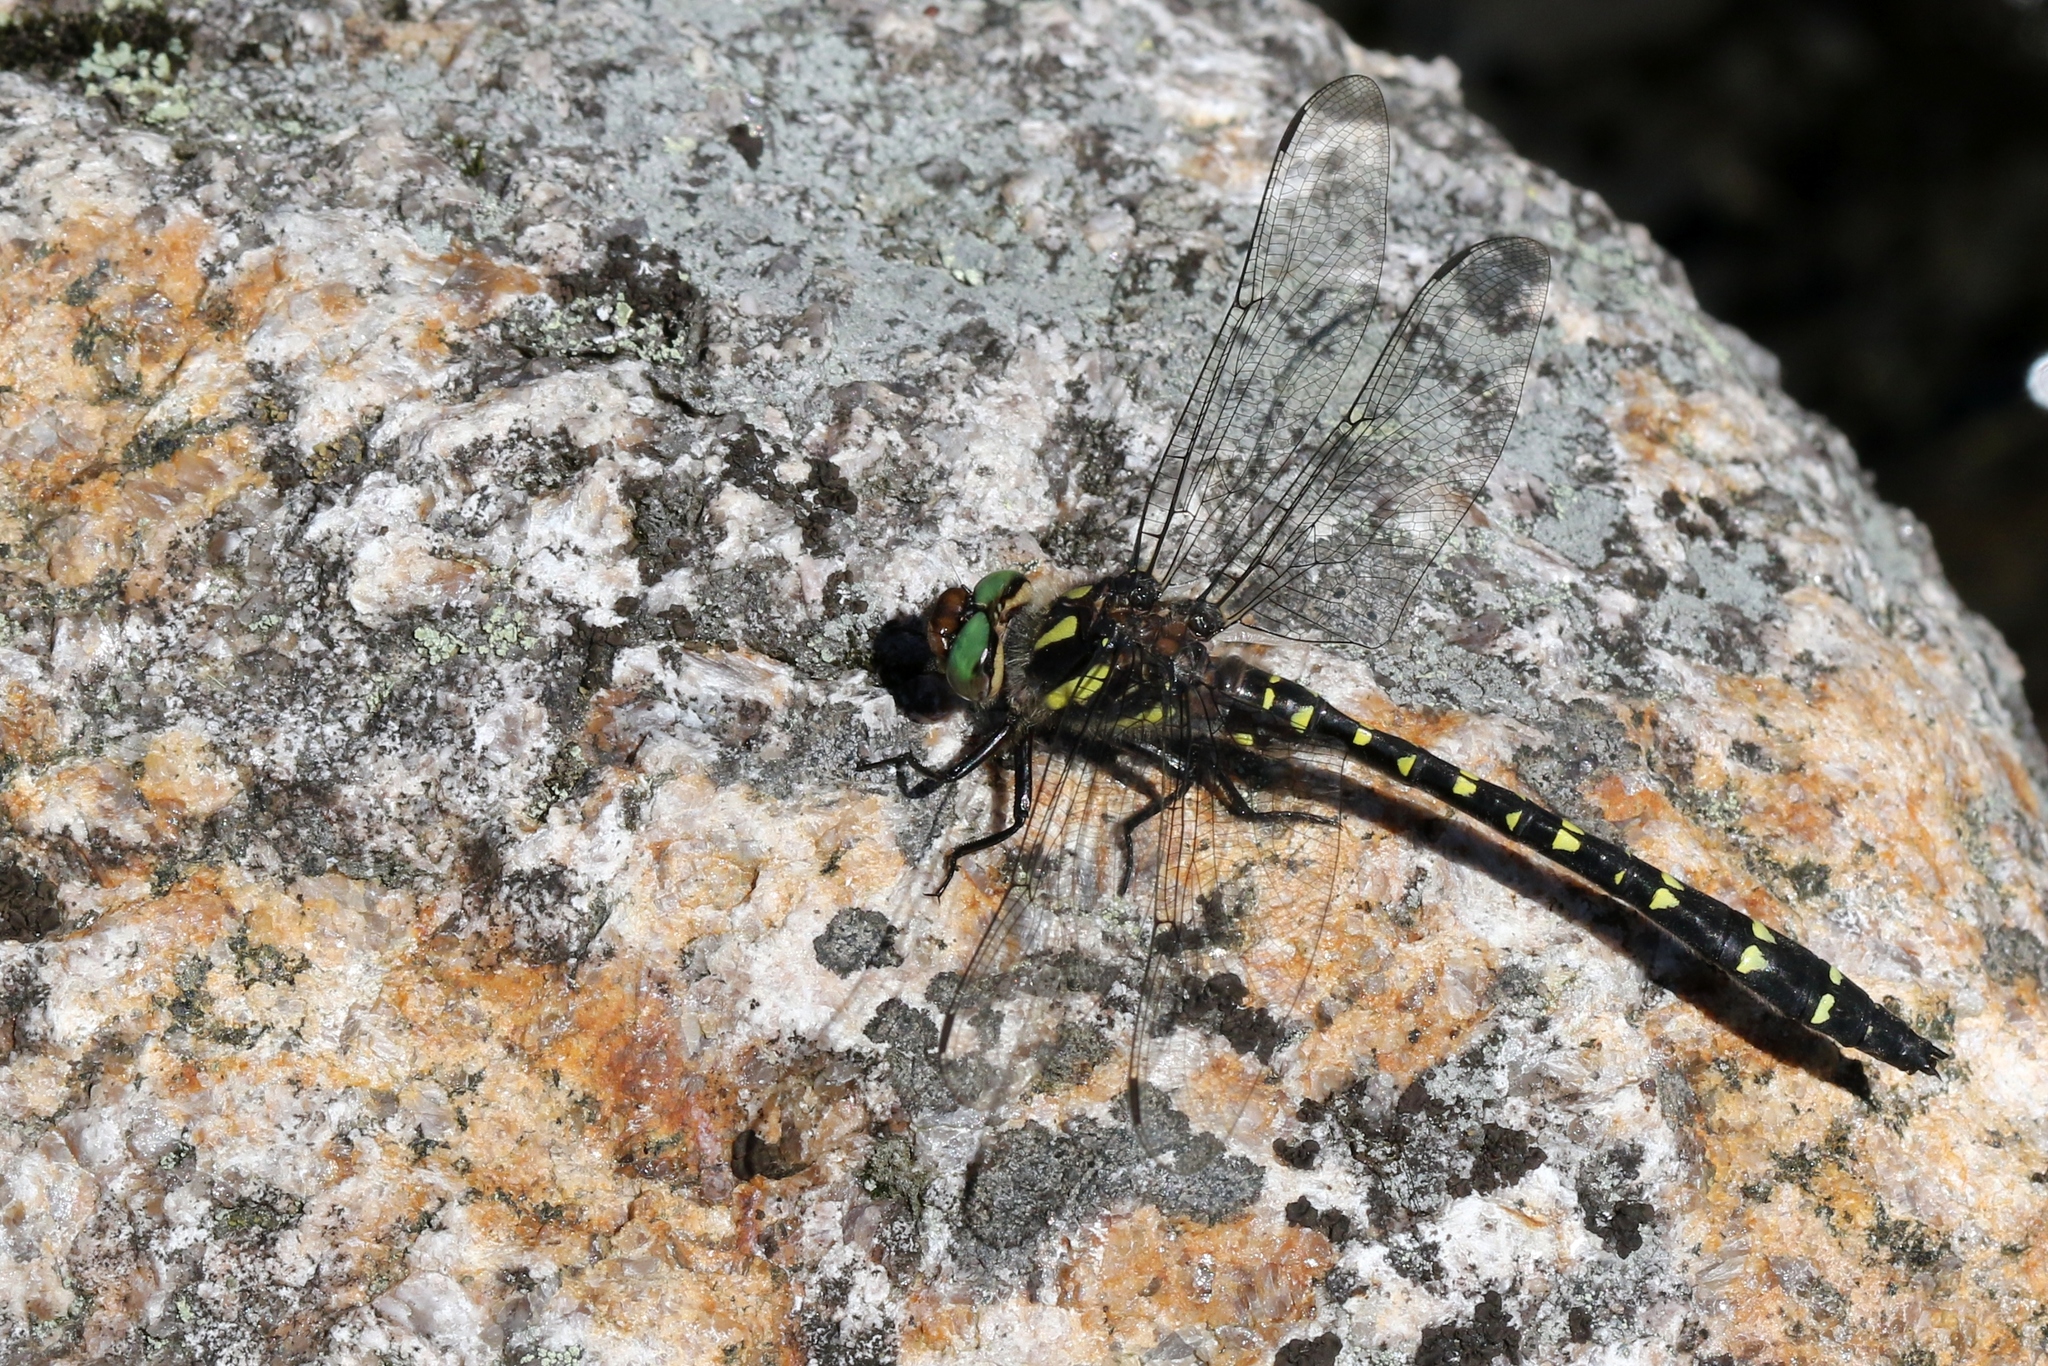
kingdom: Animalia
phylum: Arthropoda
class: Insecta
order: Odonata
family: Cordulegastridae
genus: Cordulegaster
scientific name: Cordulegaster maculata
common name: Twin-spotted spiketail
